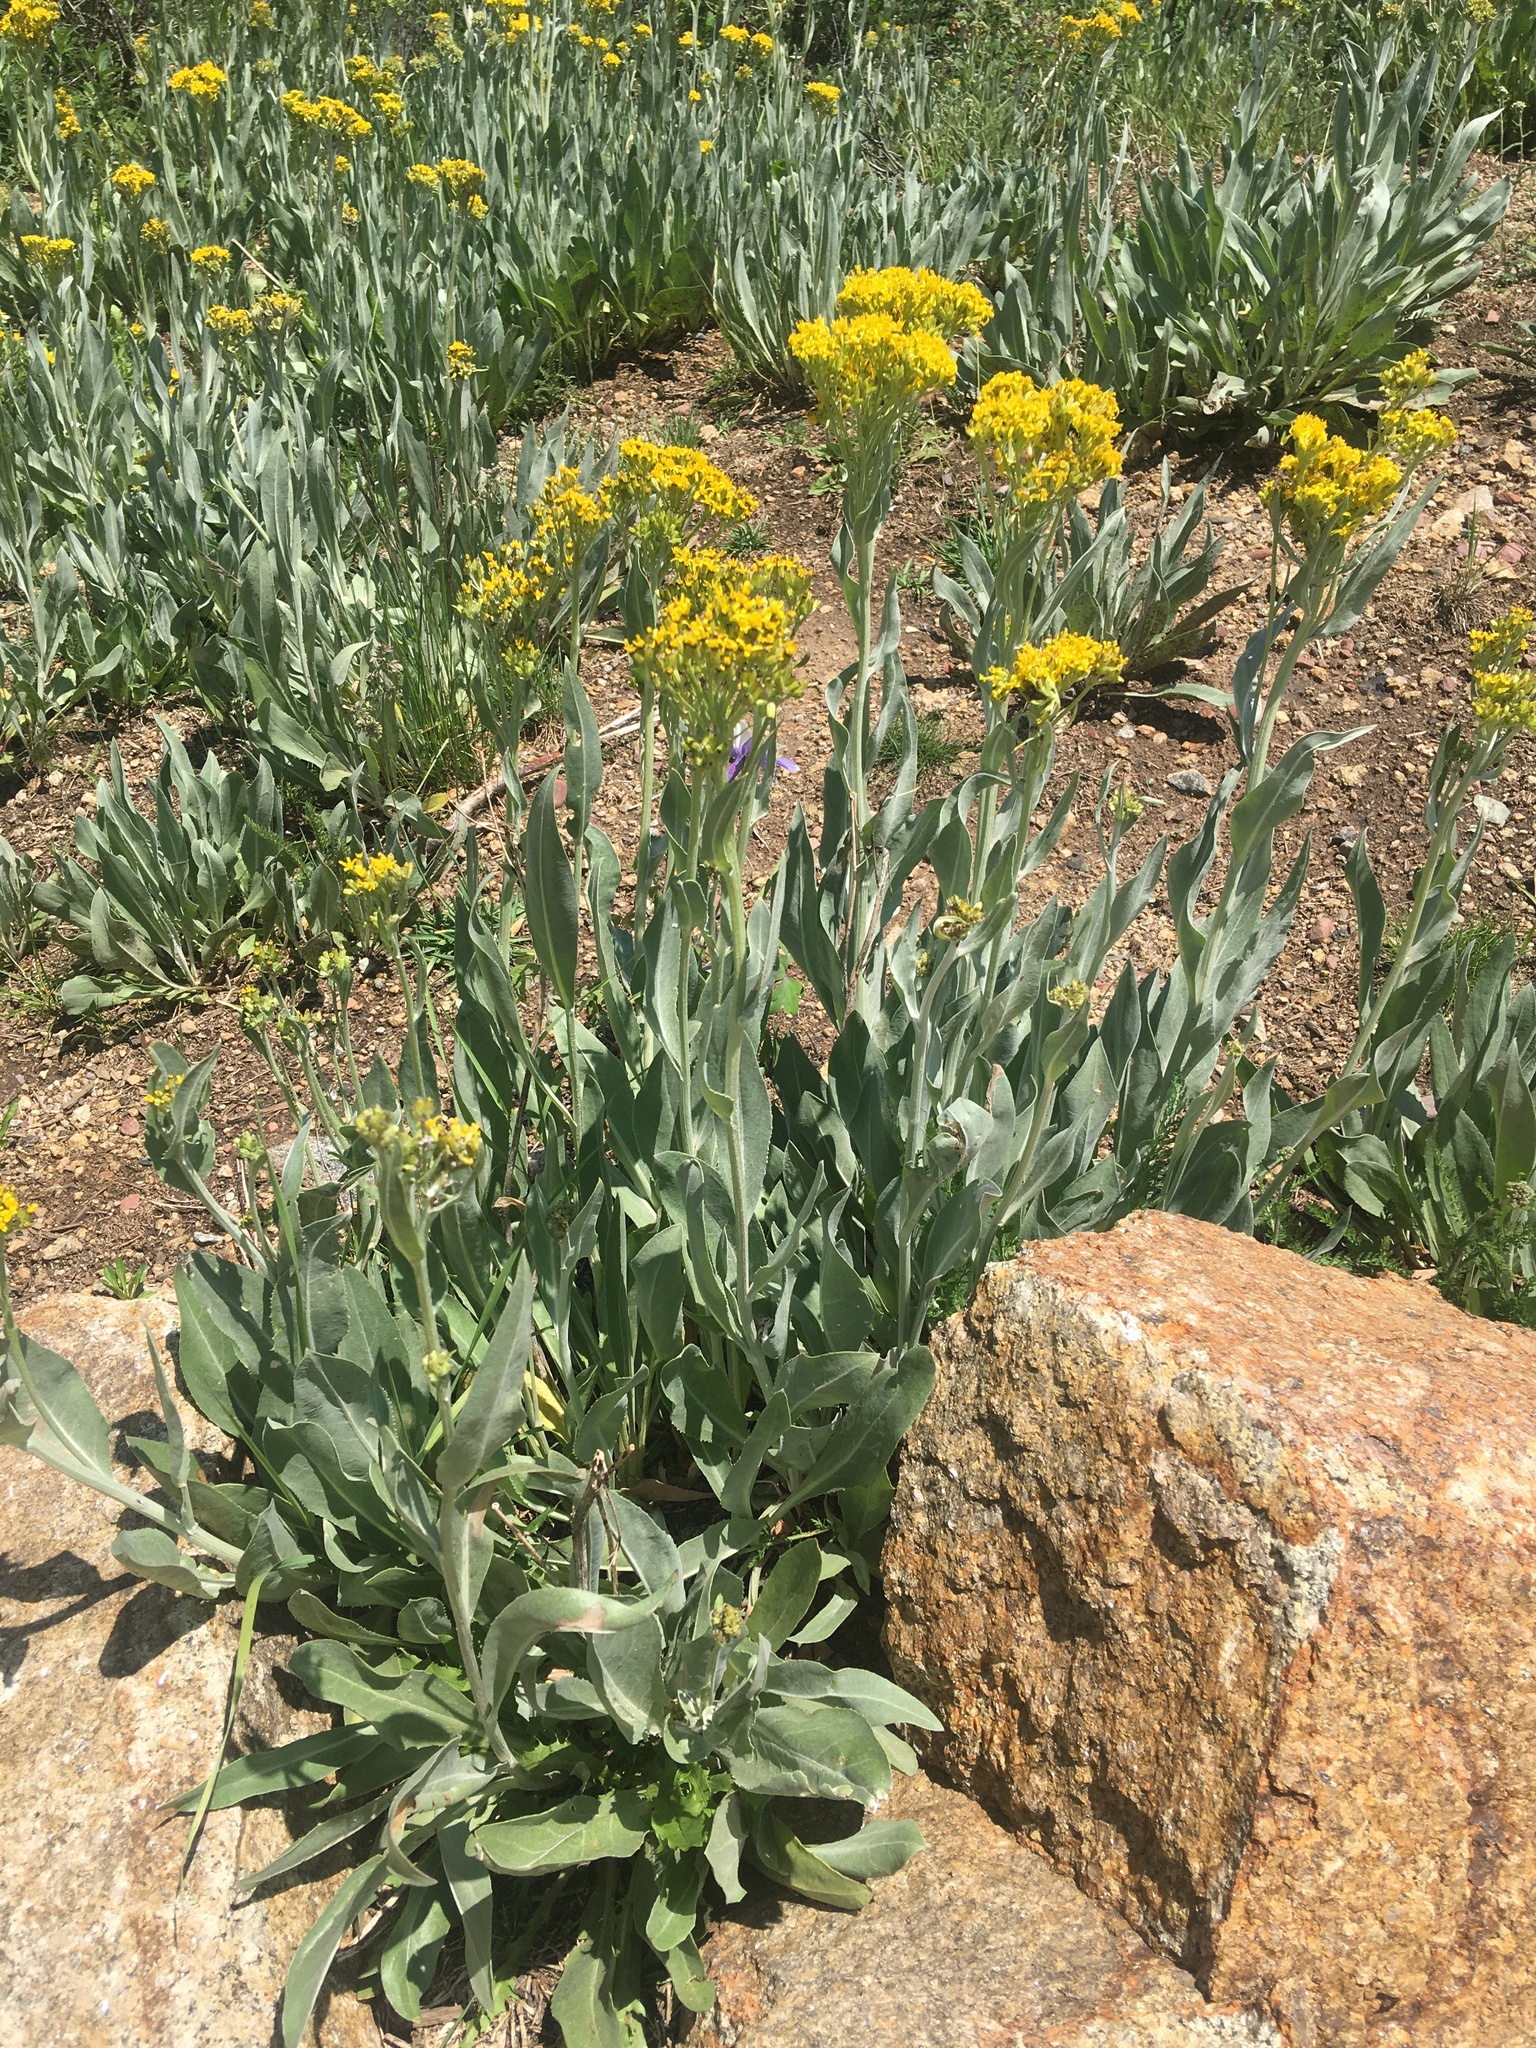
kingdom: Plantae
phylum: Tracheophyta
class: Magnoliopsida
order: Asterales
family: Asteraceae
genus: Senecio
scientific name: Senecio atratus
